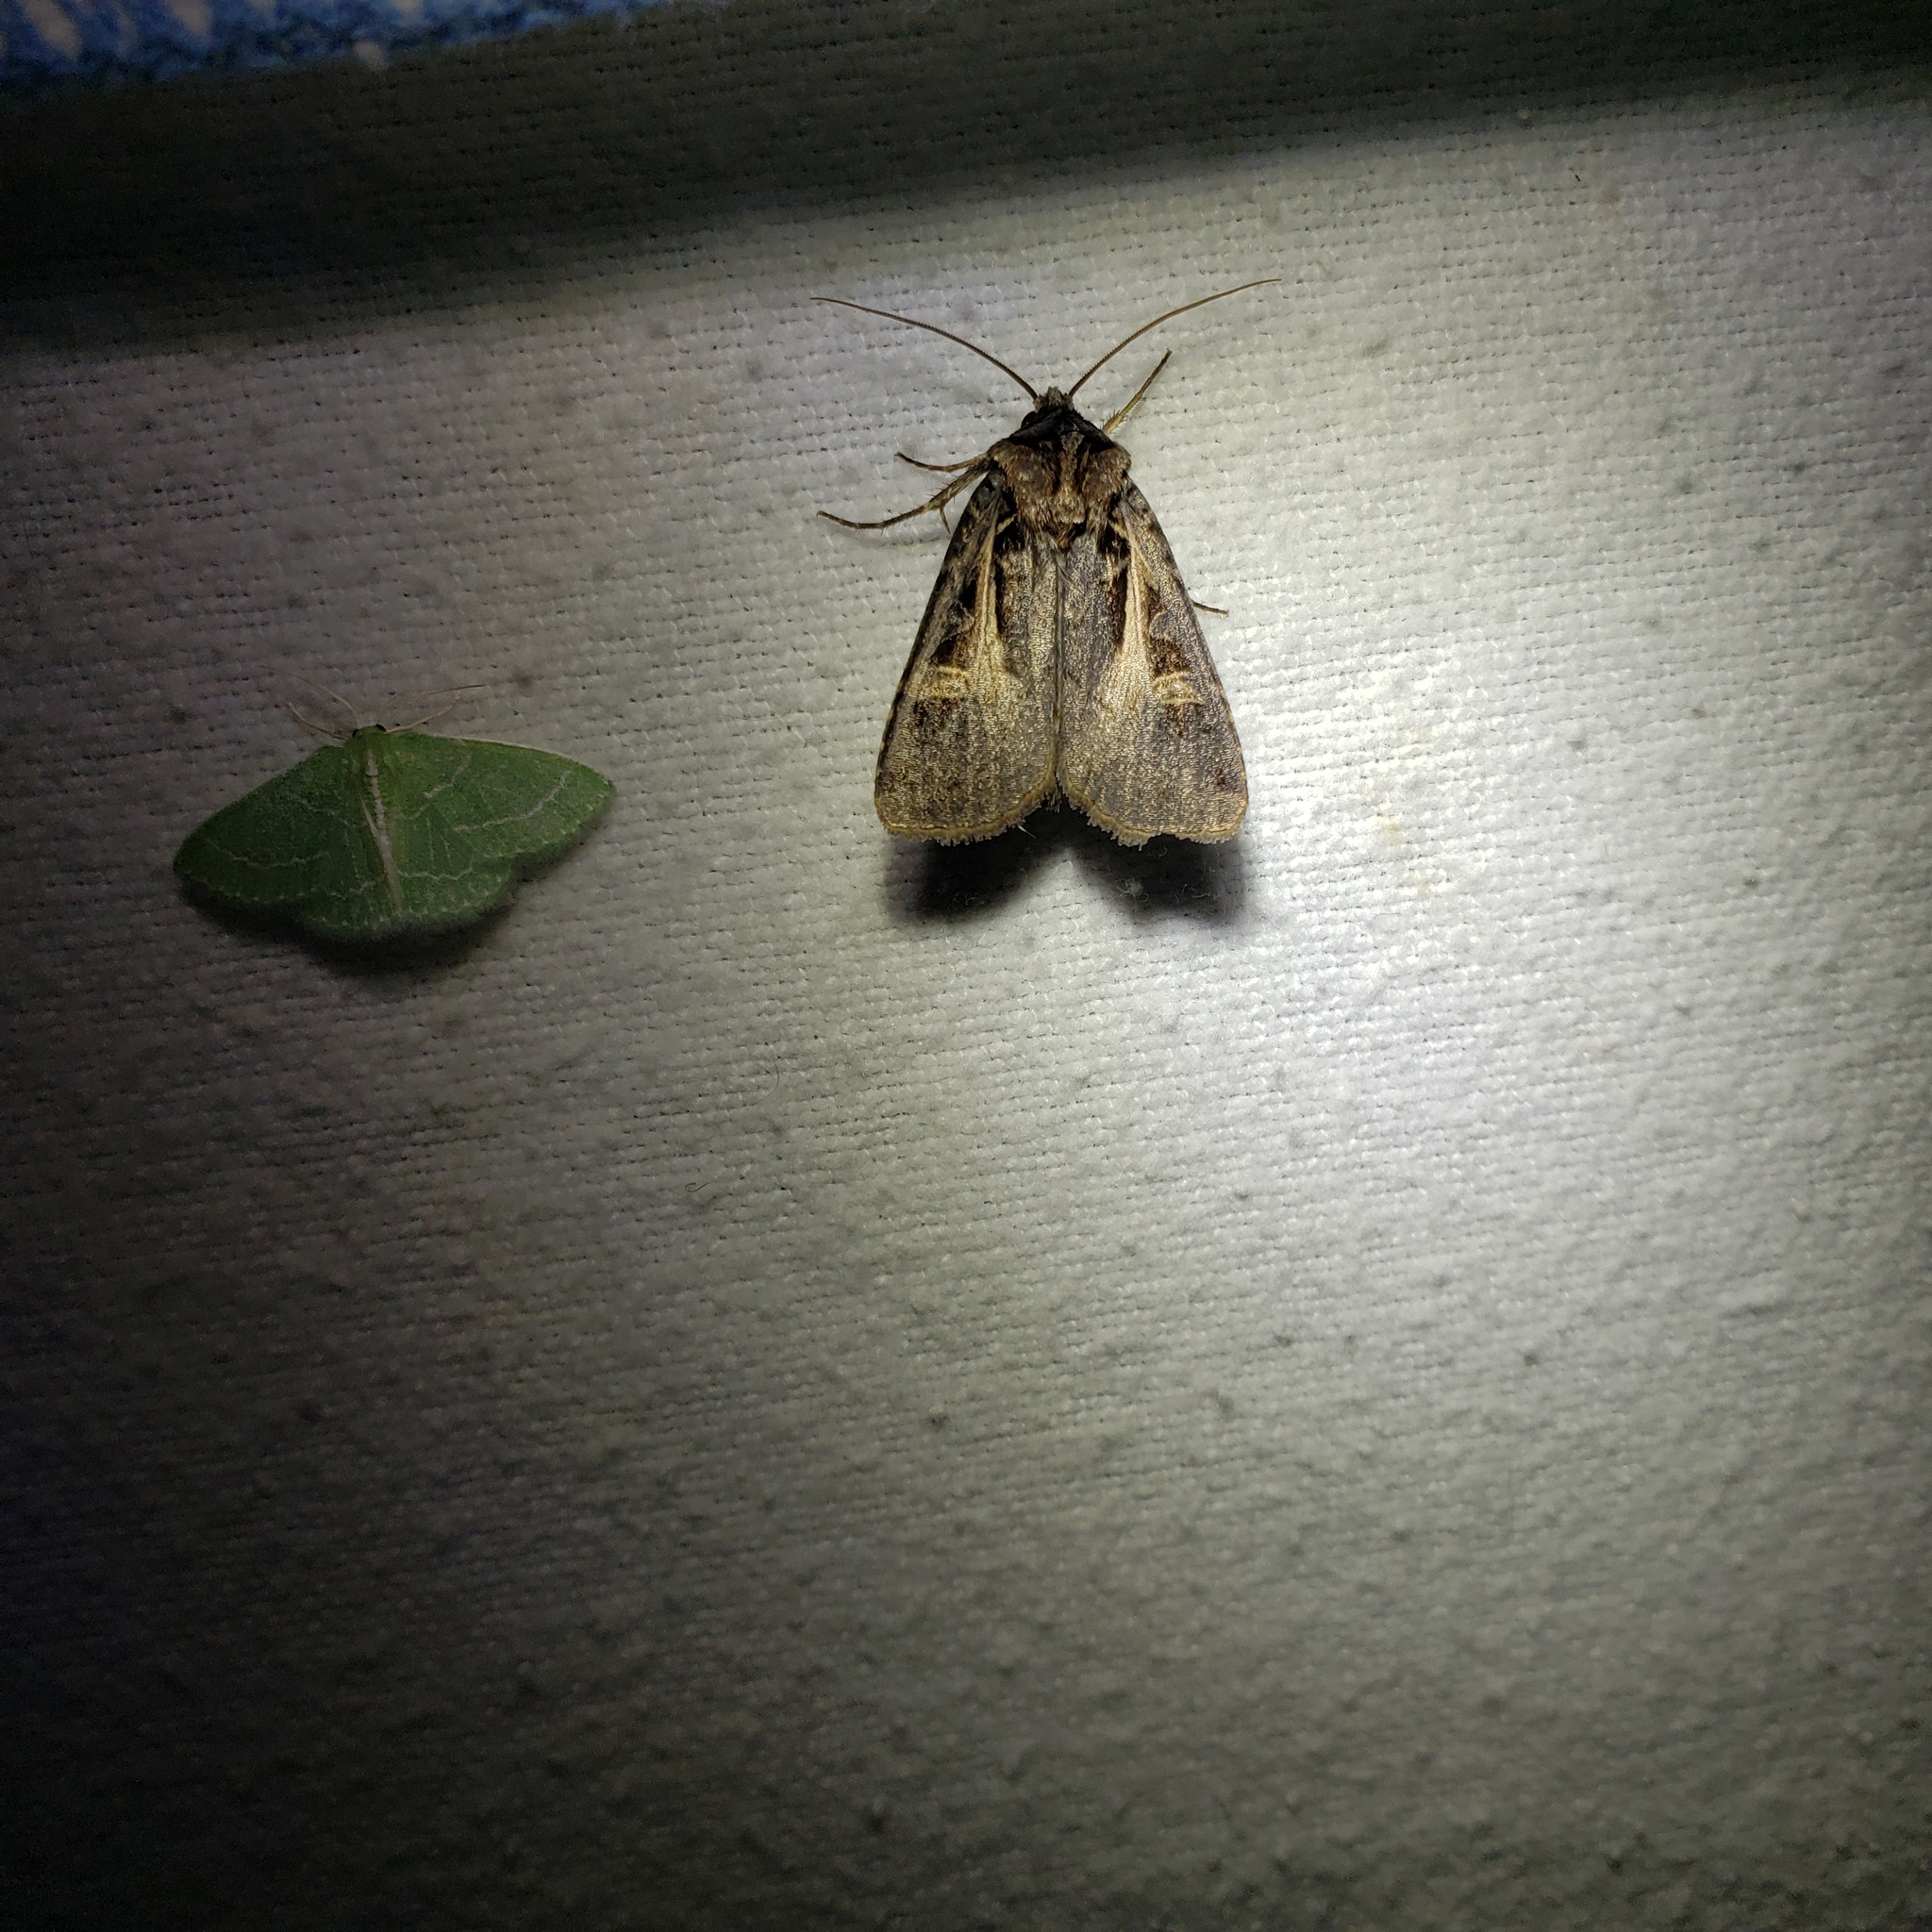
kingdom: Animalia
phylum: Arthropoda
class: Insecta
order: Lepidoptera
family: Noctuidae
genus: Feltia
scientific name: Feltia herilis
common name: Master's dart
